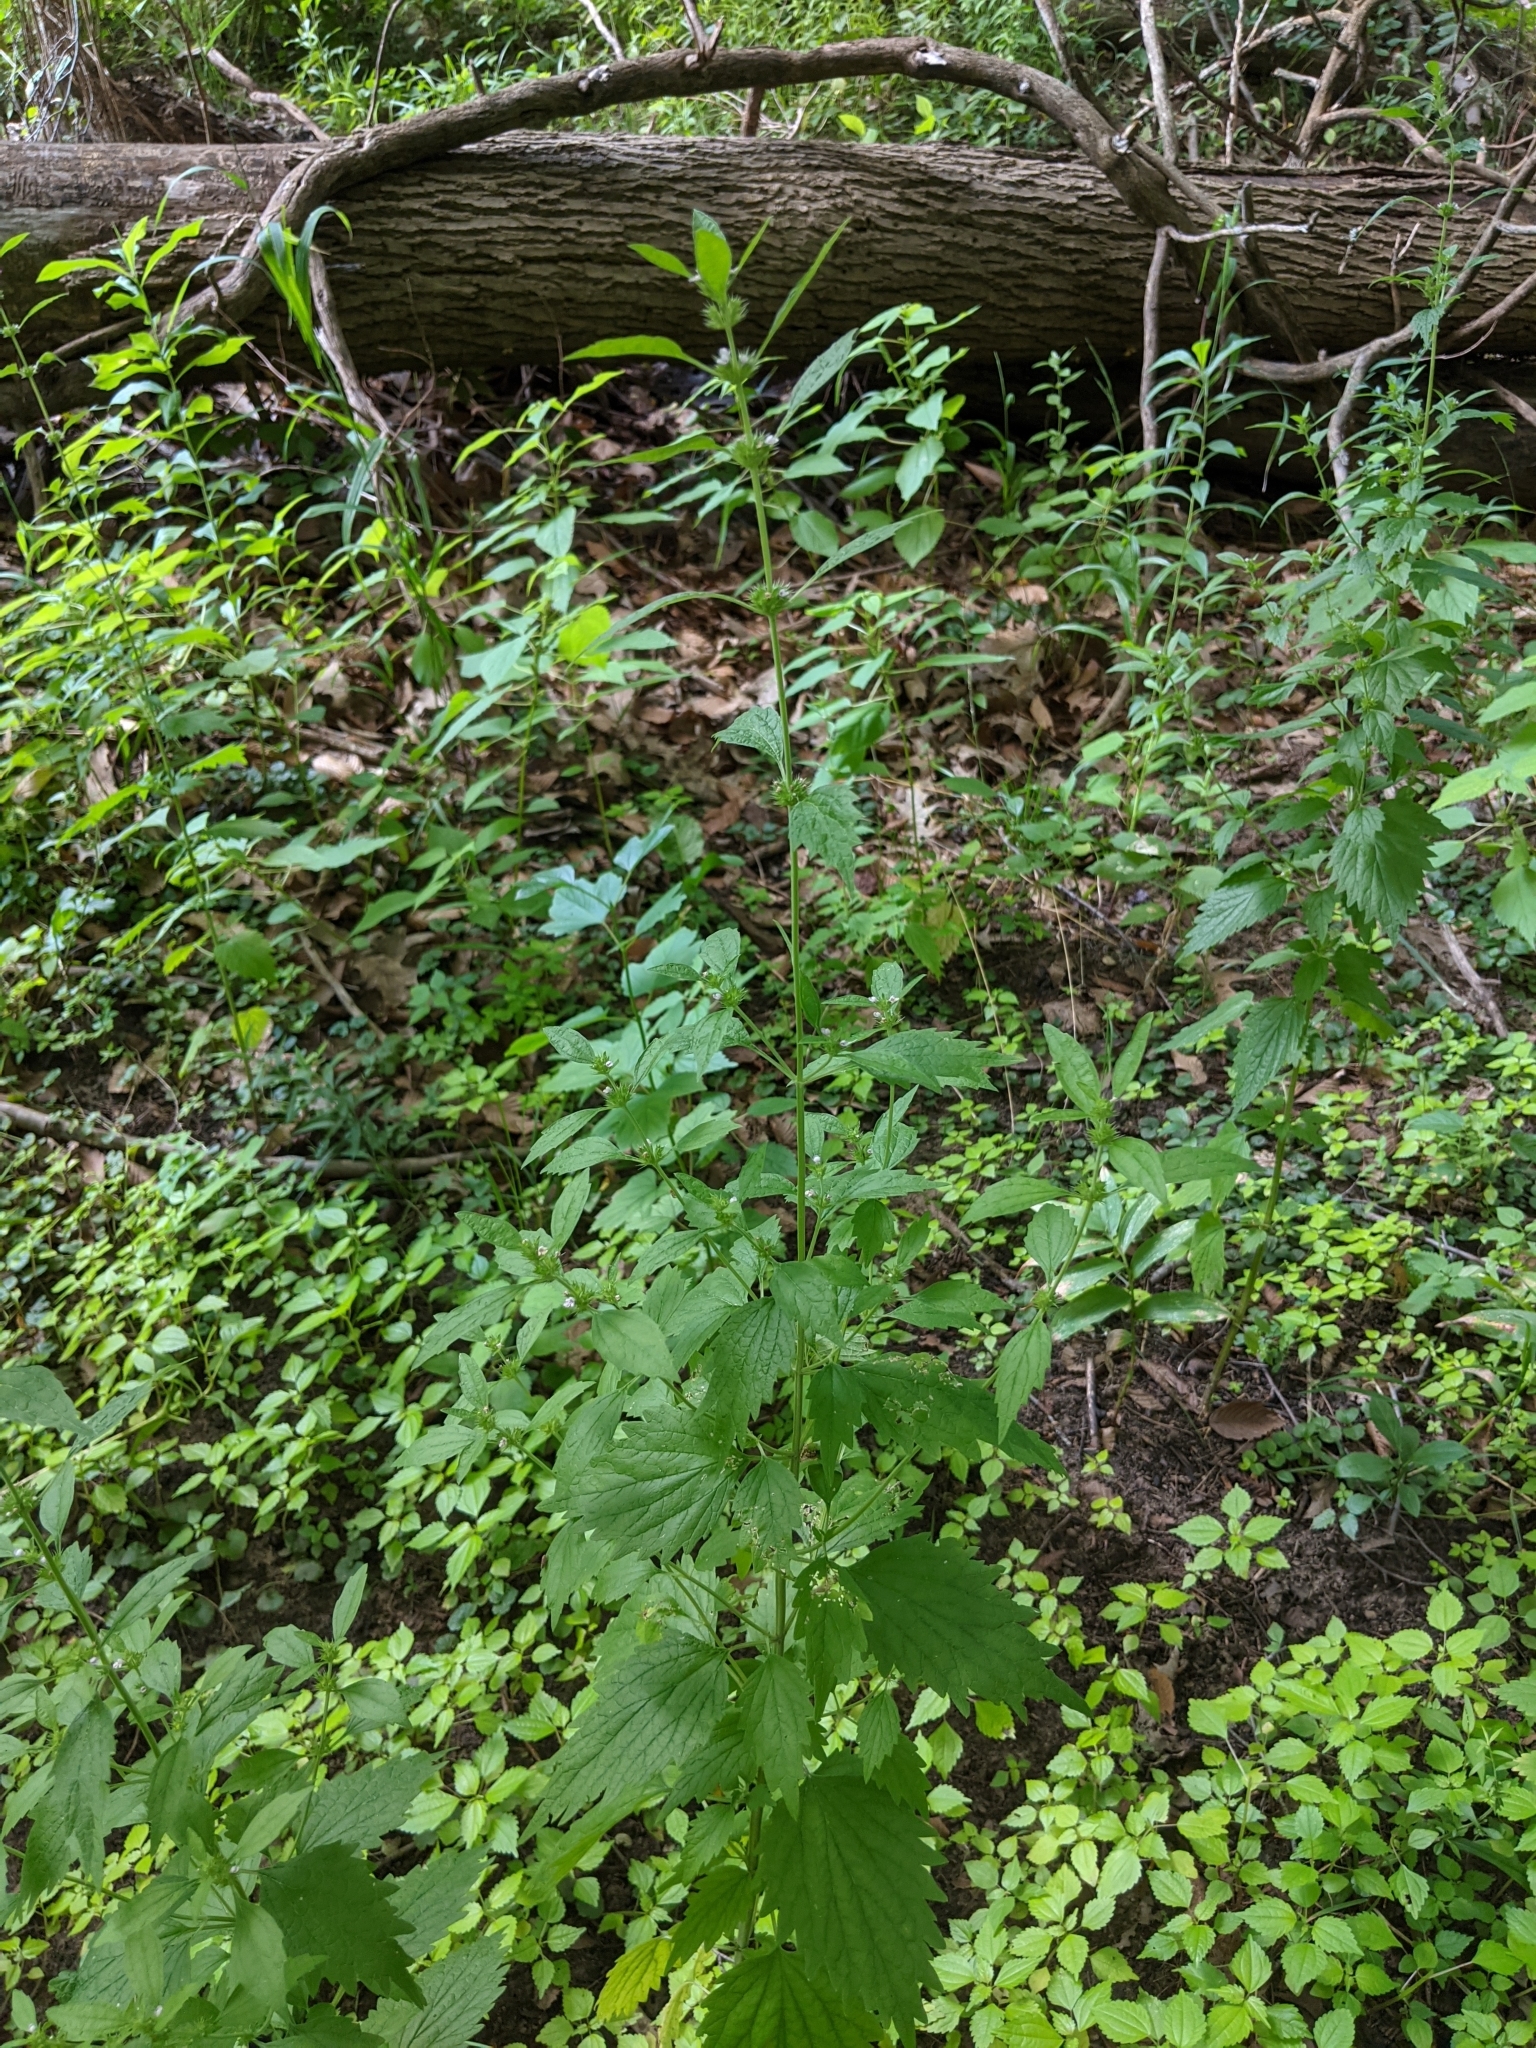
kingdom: Plantae
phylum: Tracheophyta
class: Magnoliopsida
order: Lamiales
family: Lamiaceae
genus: Chaiturus
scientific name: Chaiturus marrubiastrum
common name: Lion's tail
